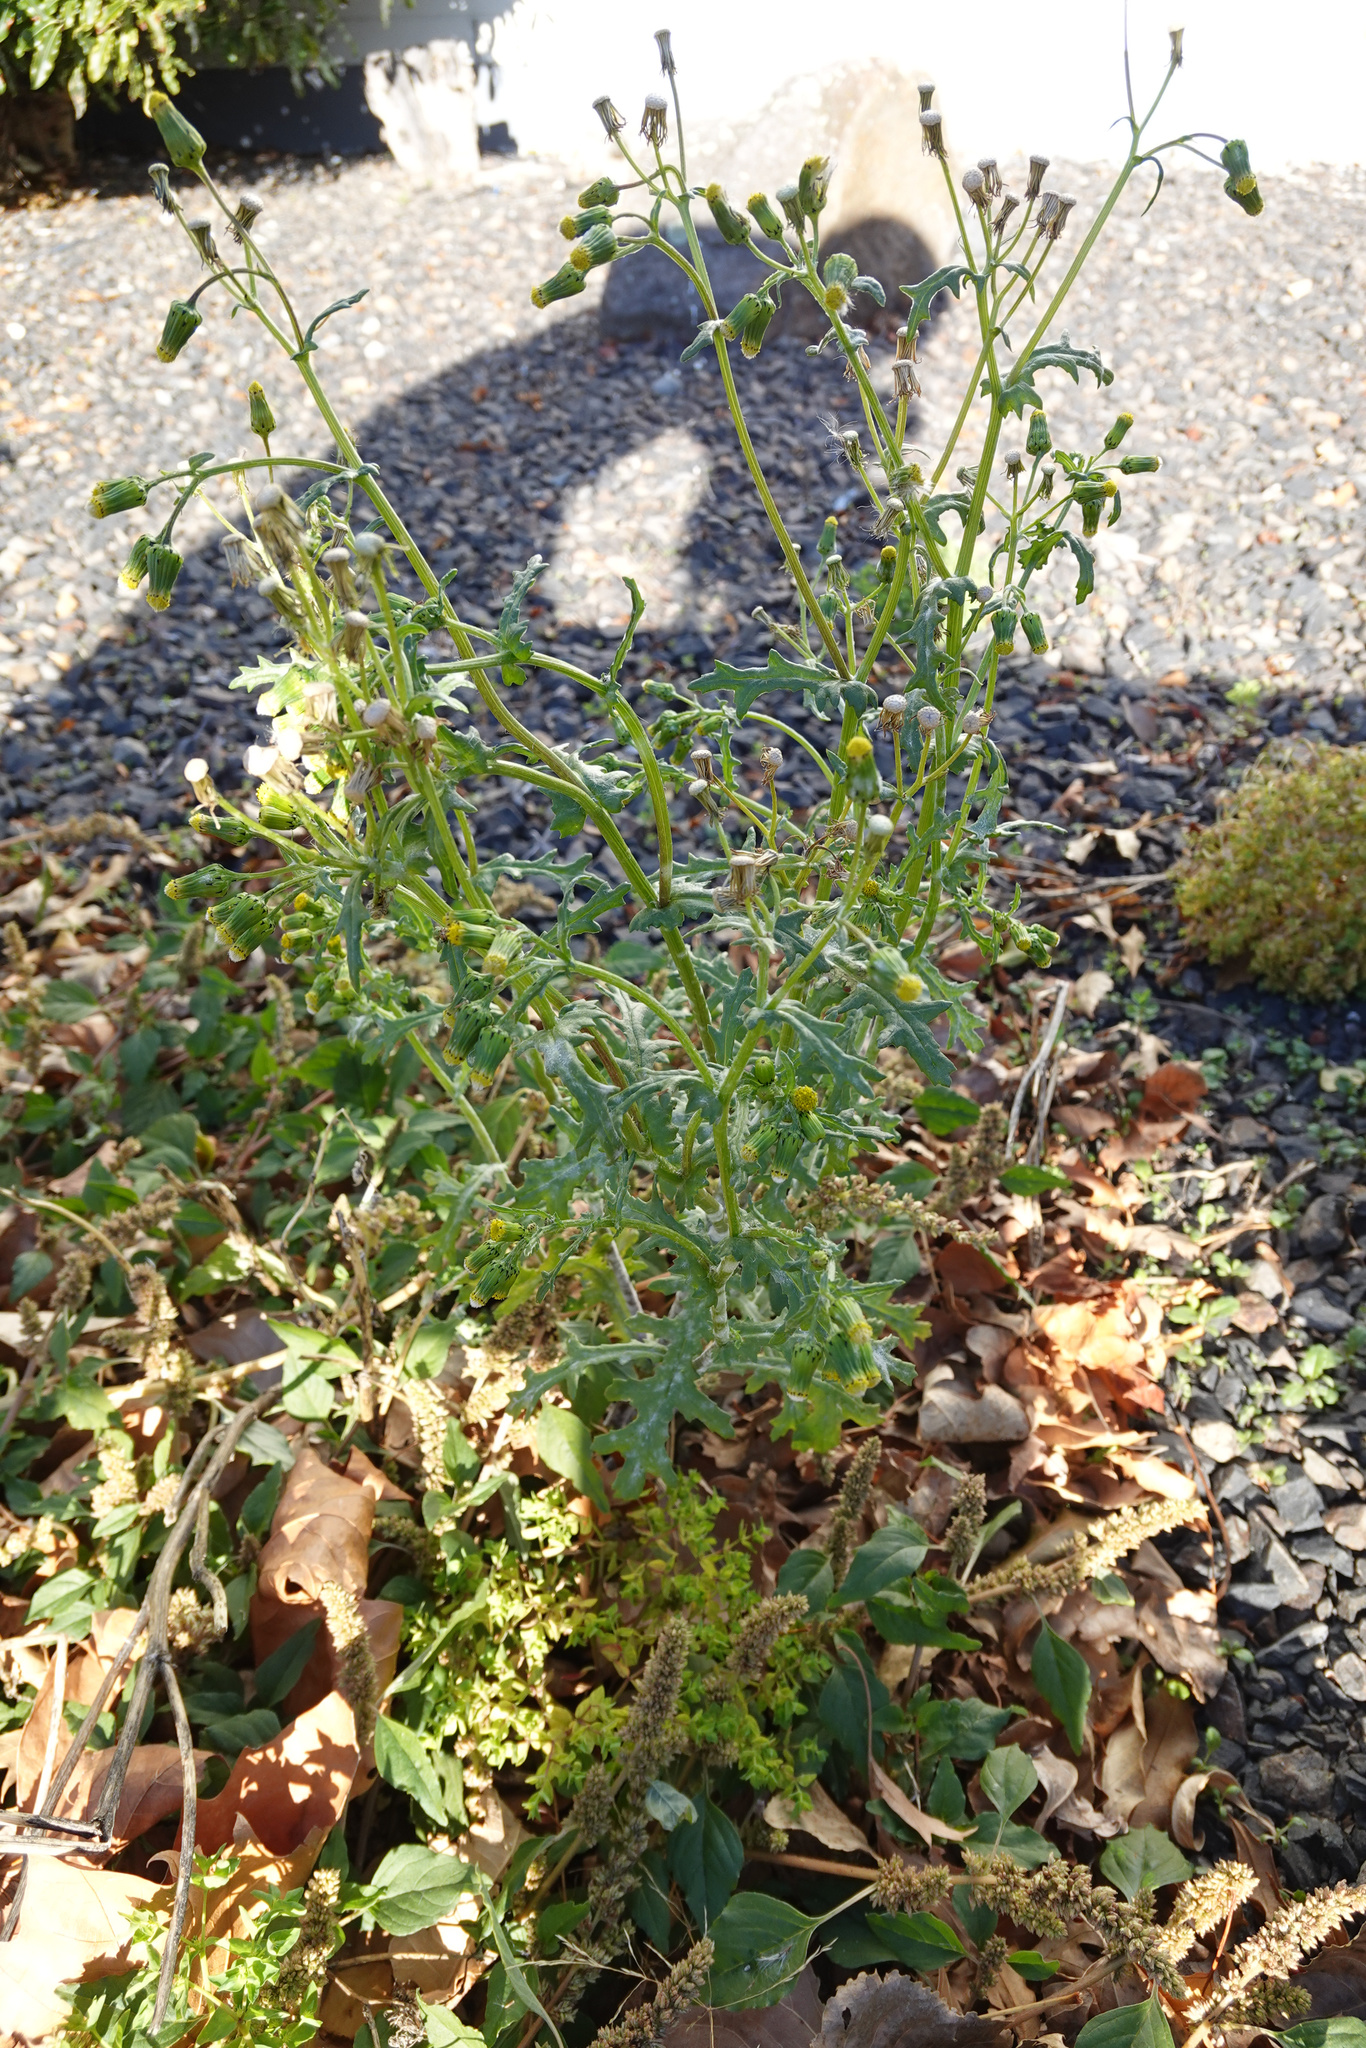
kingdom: Plantae
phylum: Tracheophyta
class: Magnoliopsida
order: Asterales
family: Asteraceae
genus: Senecio
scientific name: Senecio vulgaris
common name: Old-man-in-the-spring
